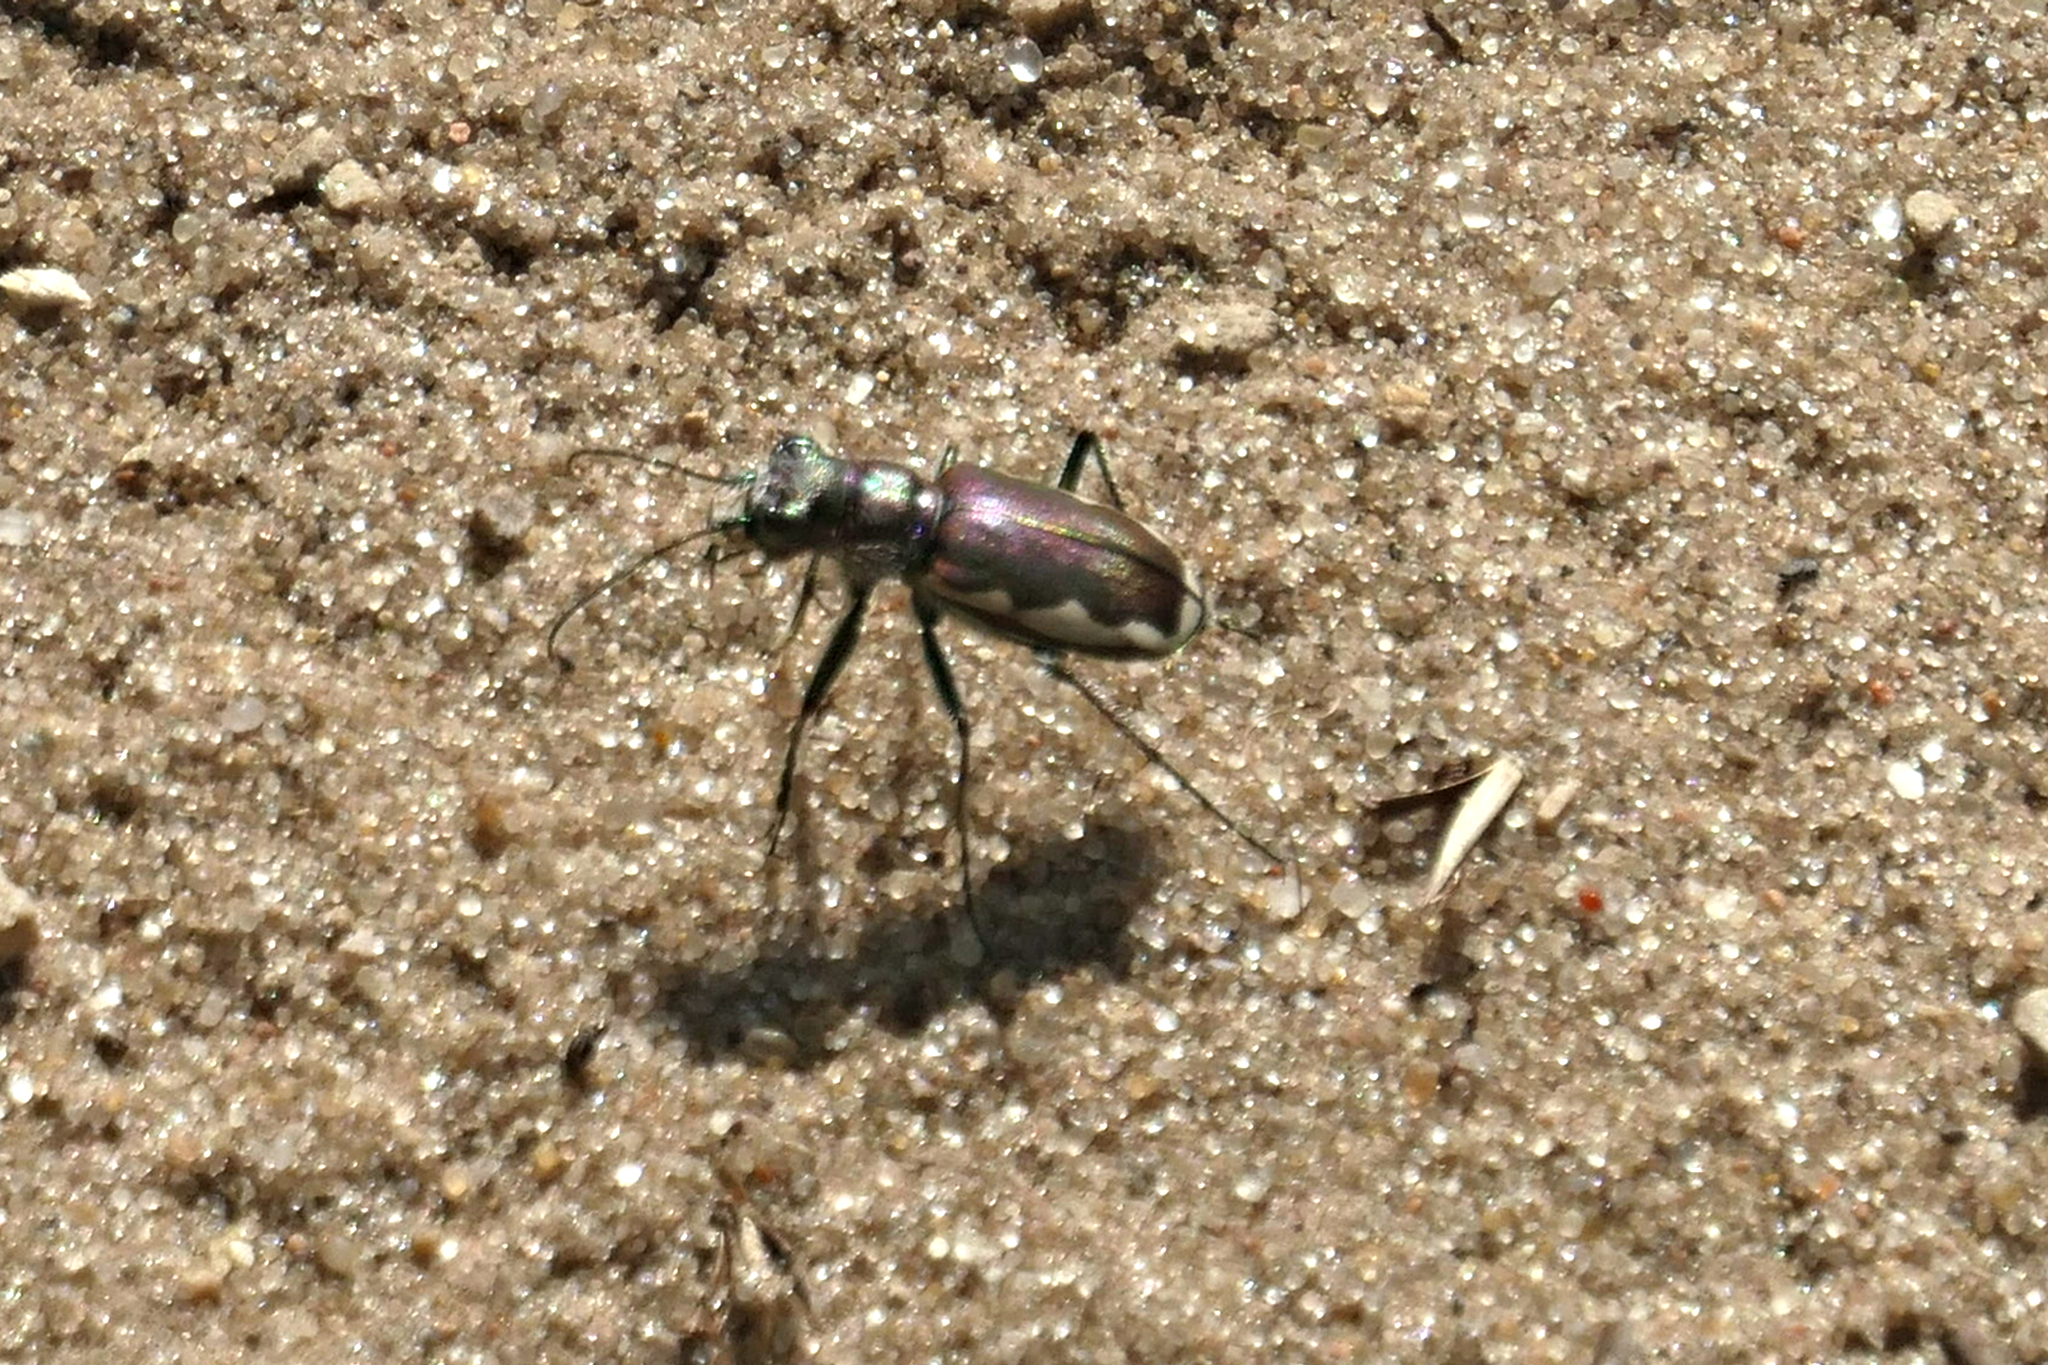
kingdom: Animalia
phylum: Arthropoda
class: Insecta
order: Coleoptera
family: Carabidae
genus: Cicindela
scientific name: Cicindela scutellaris
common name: Festive tiger beetle
